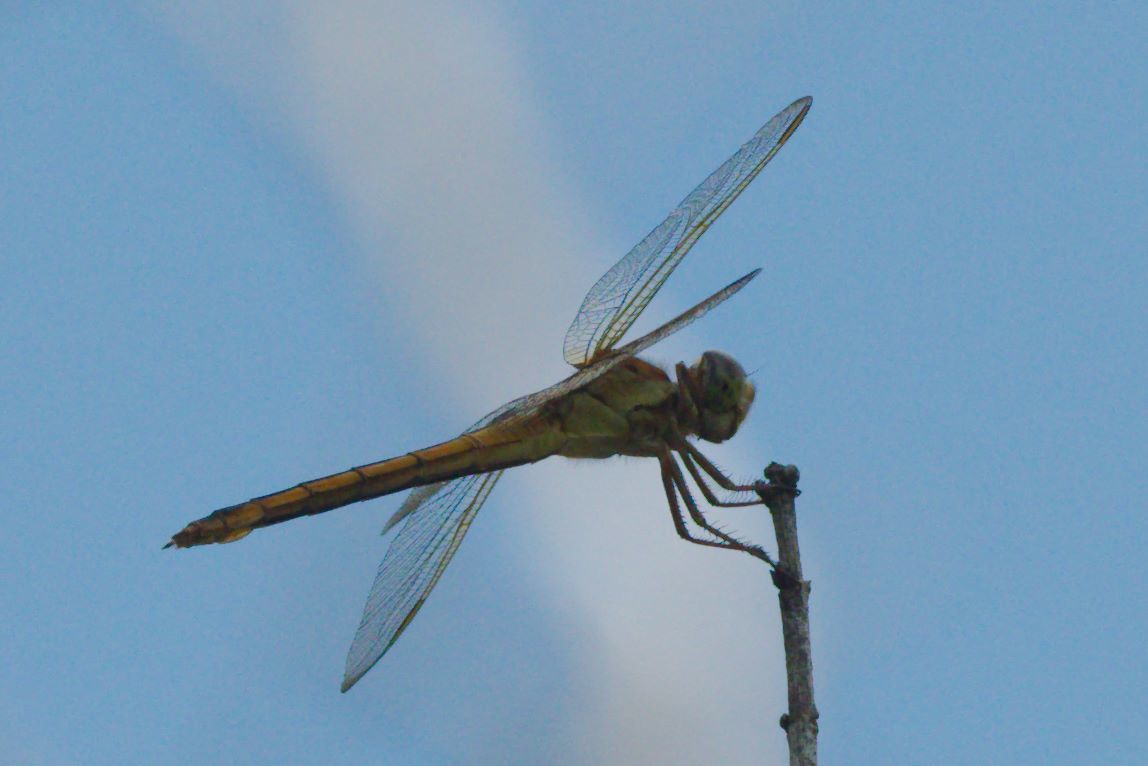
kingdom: Animalia
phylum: Arthropoda
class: Insecta
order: Odonata
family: Libellulidae
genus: Libellula
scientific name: Libellula needhami
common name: Needham's skimmer
